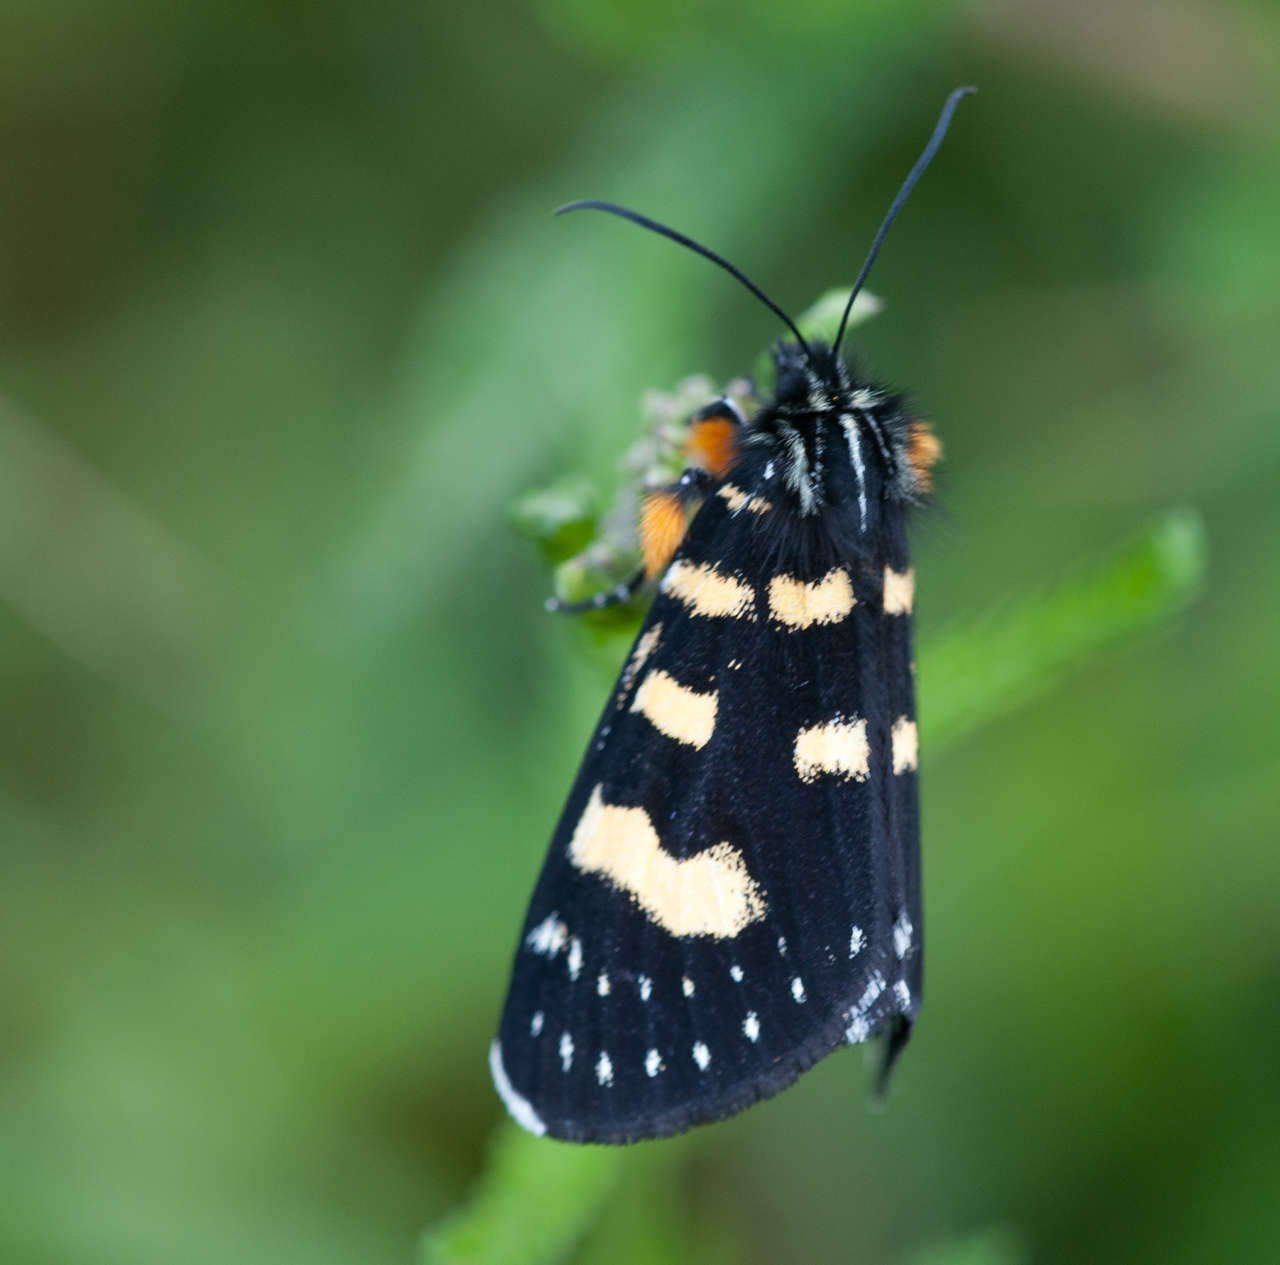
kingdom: Animalia
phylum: Arthropoda
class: Insecta
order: Lepidoptera
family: Noctuidae
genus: Phalaenoides
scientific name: Phalaenoides tristifica
